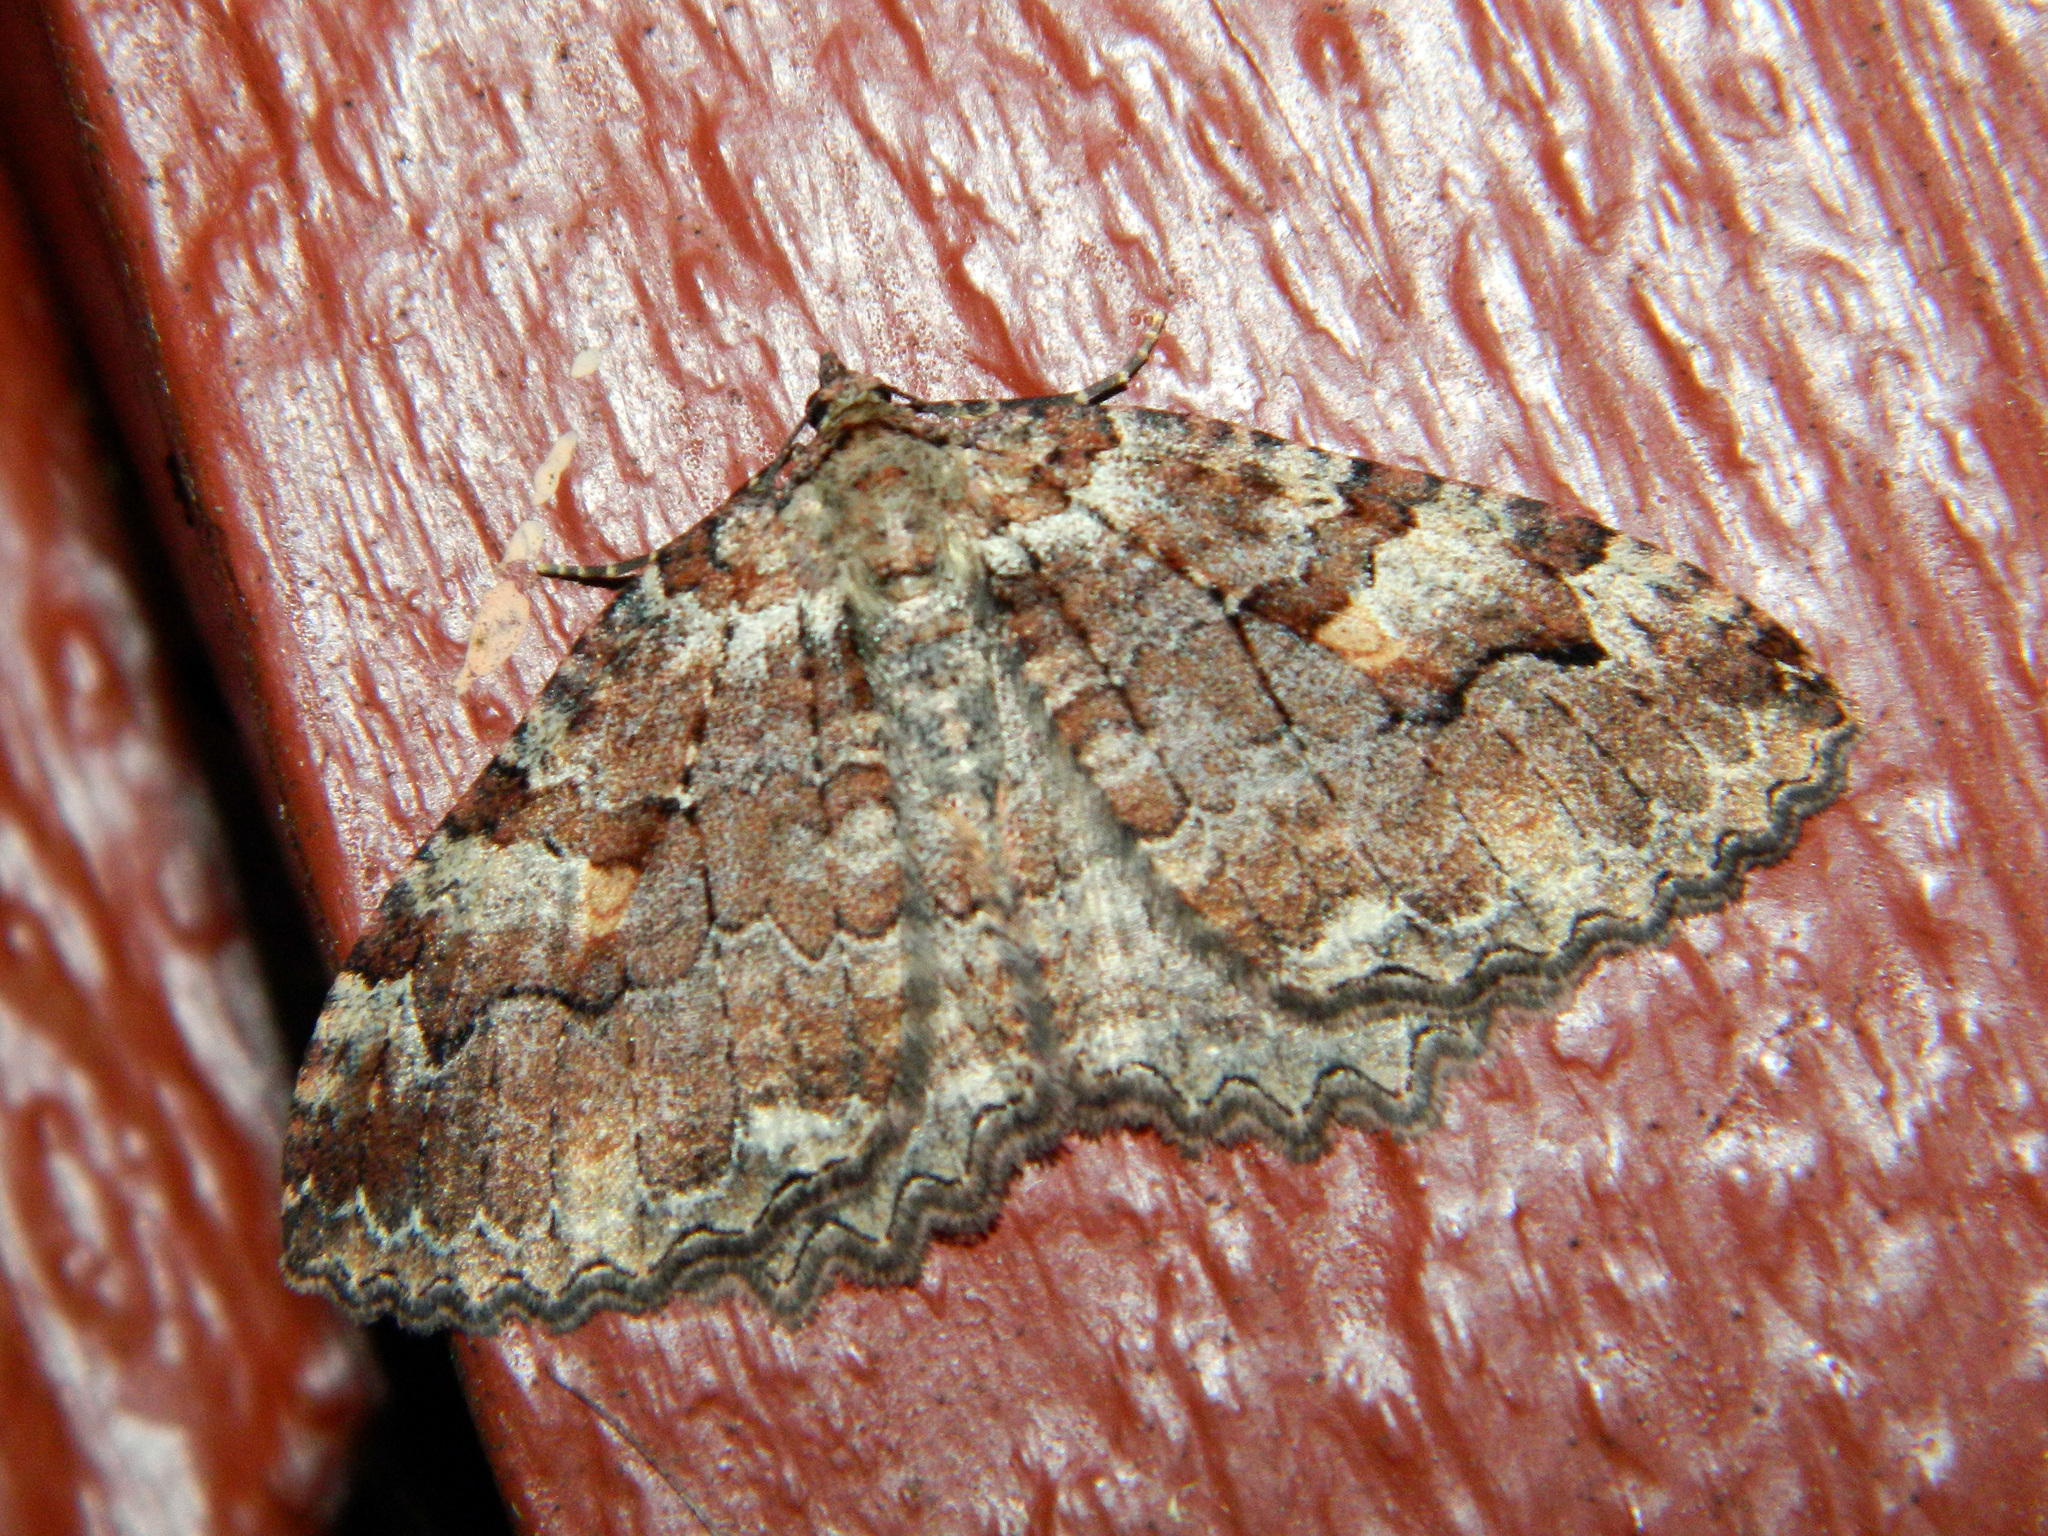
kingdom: Animalia
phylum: Arthropoda
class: Insecta
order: Lepidoptera
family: Geometridae
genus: Triphosa
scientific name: Triphosa haesitata
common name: Tissue moth
